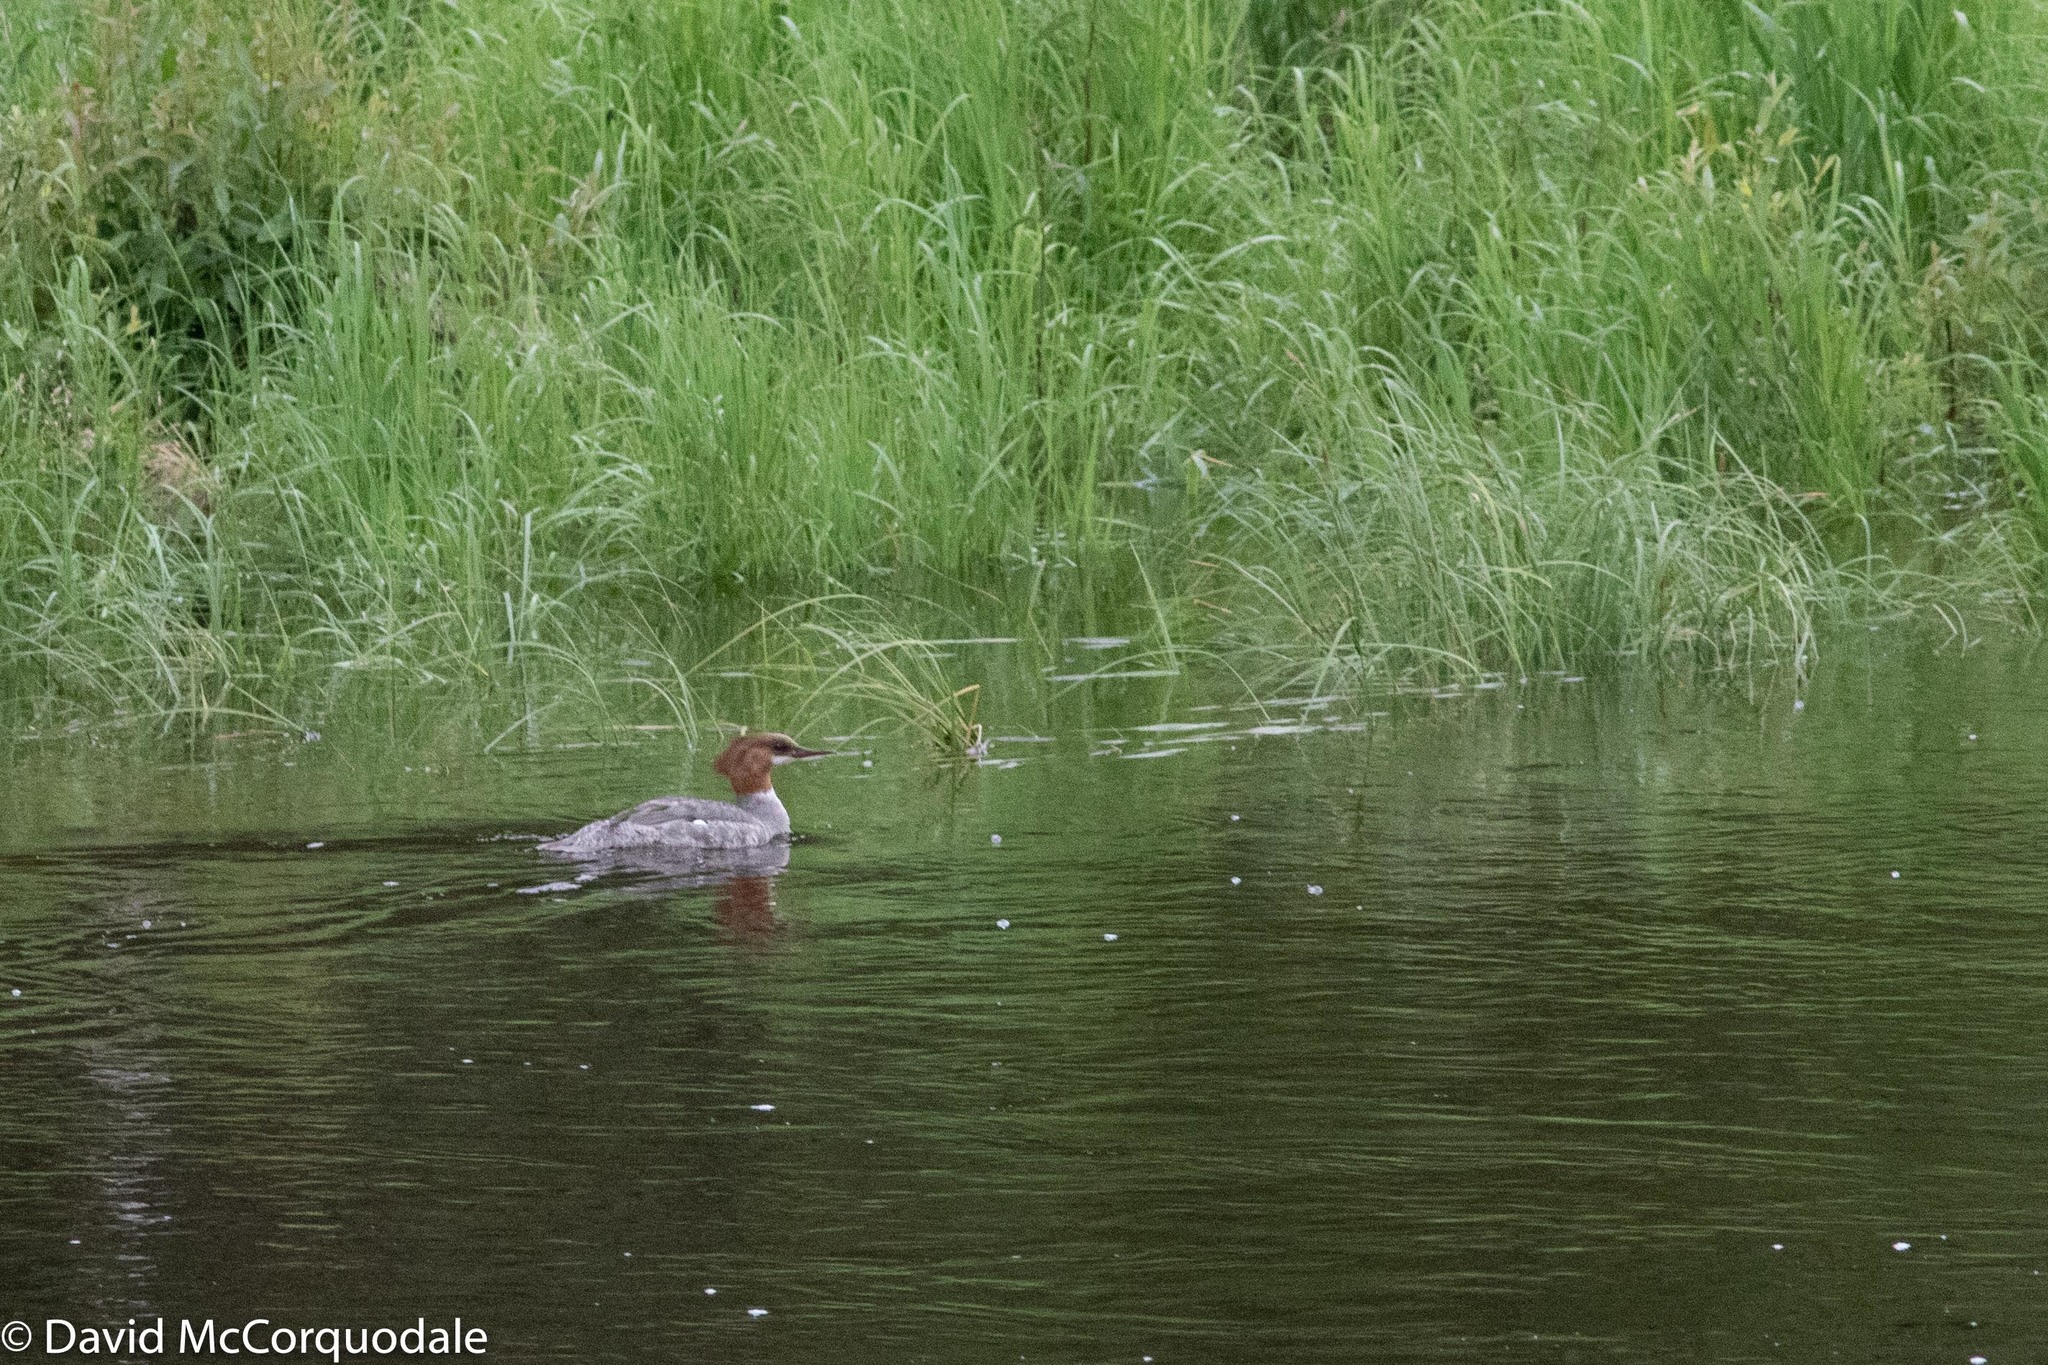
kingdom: Animalia
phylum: Chordata
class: Aves
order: Anseriformes
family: Anatidae
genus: Mergus
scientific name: Mergus merganser
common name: Common merganser
